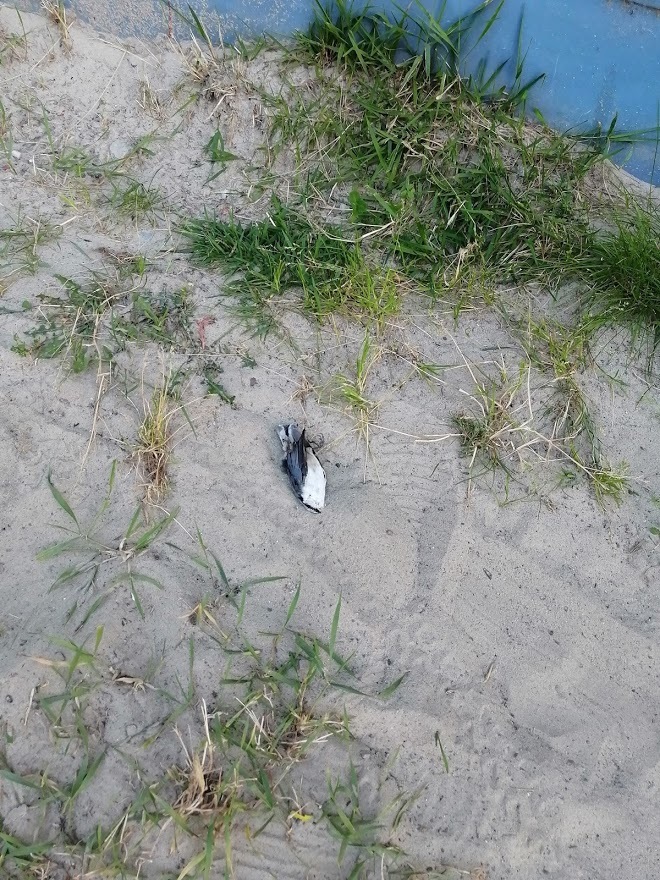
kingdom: Animalia
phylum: Chordata
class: Aves
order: Passeriformes
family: Sittidae
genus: Sitta
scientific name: Sitta europaea
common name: Eurasian nuthatch
